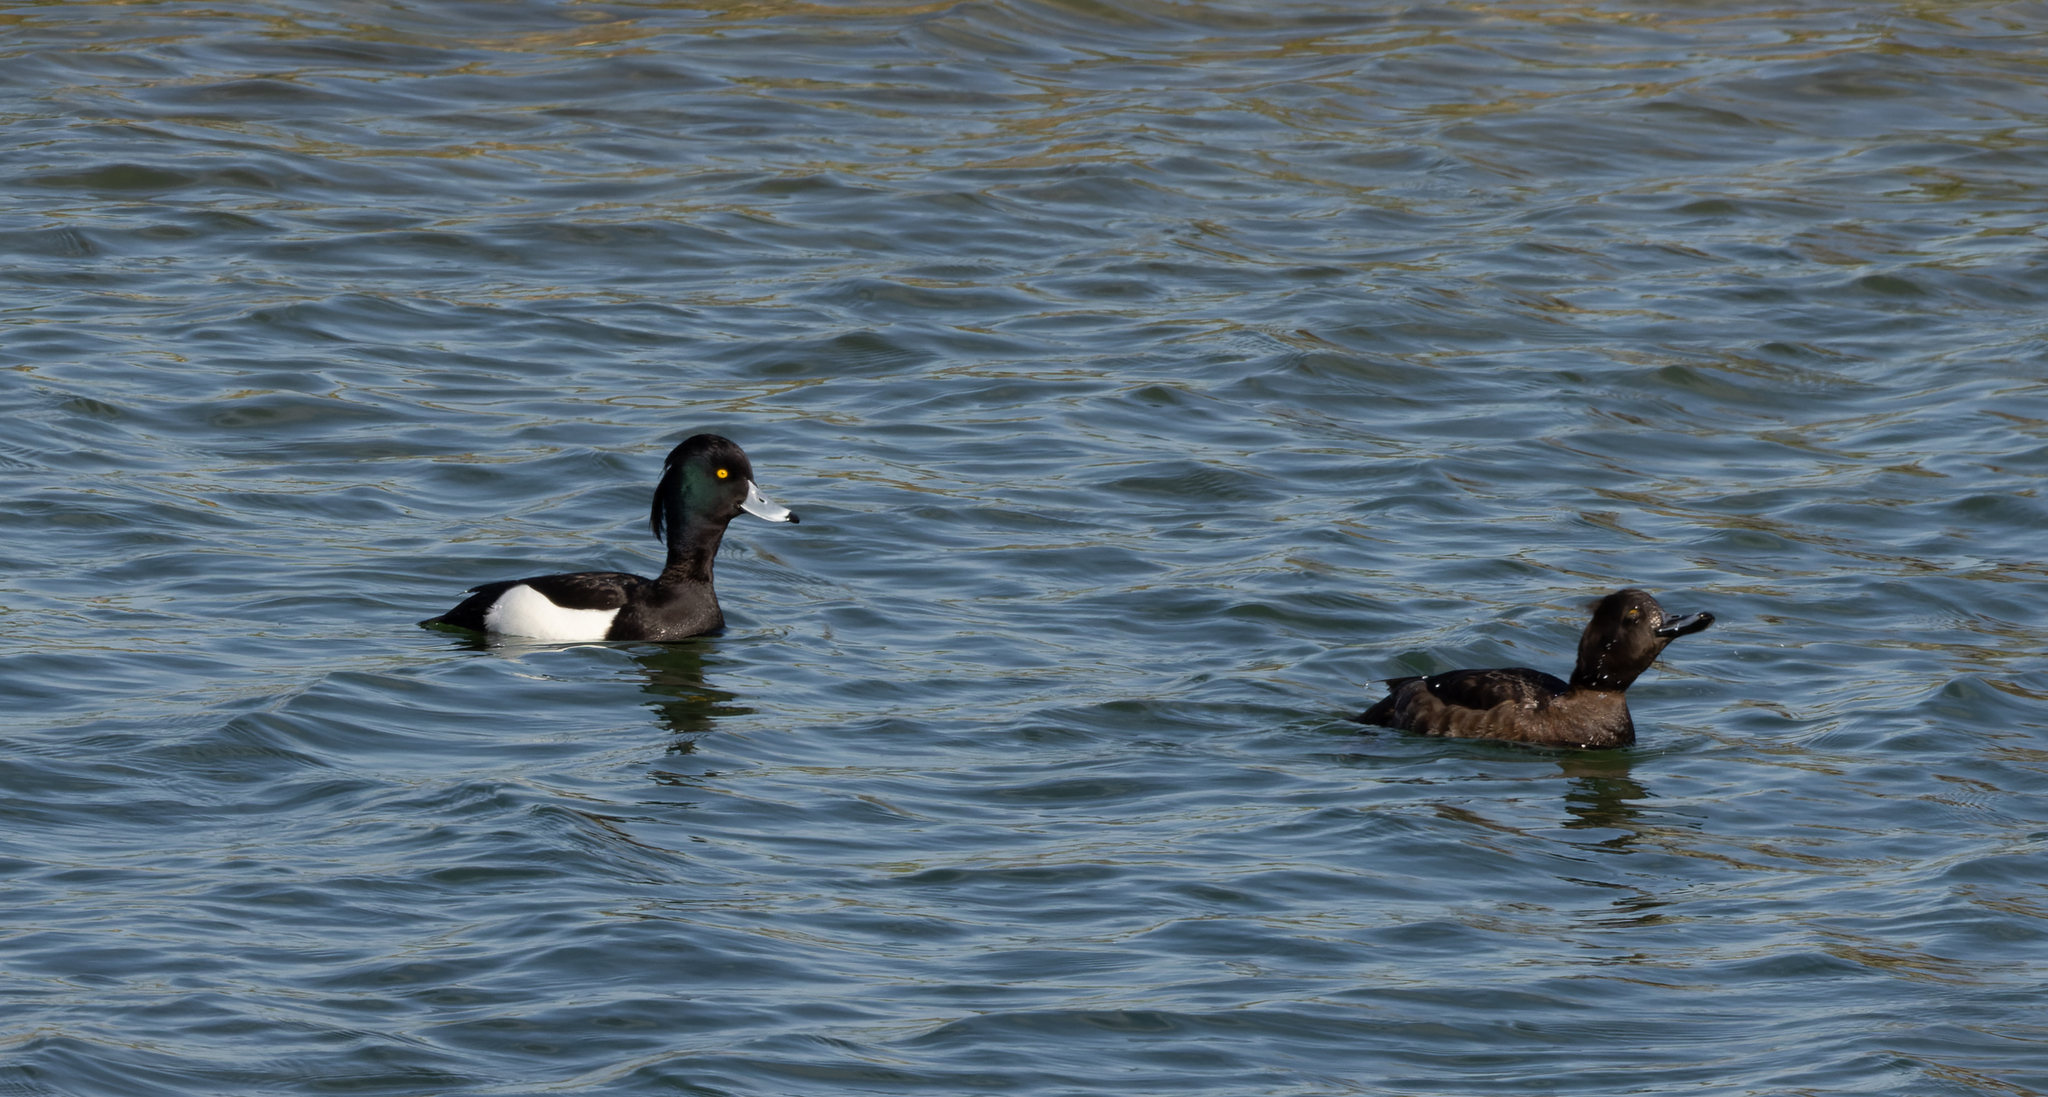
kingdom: Animalia
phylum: Chordata
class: Aves
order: Anseriformes
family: Anatidae
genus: Aythya
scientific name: Aythya fuligula
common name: Tufted duck
